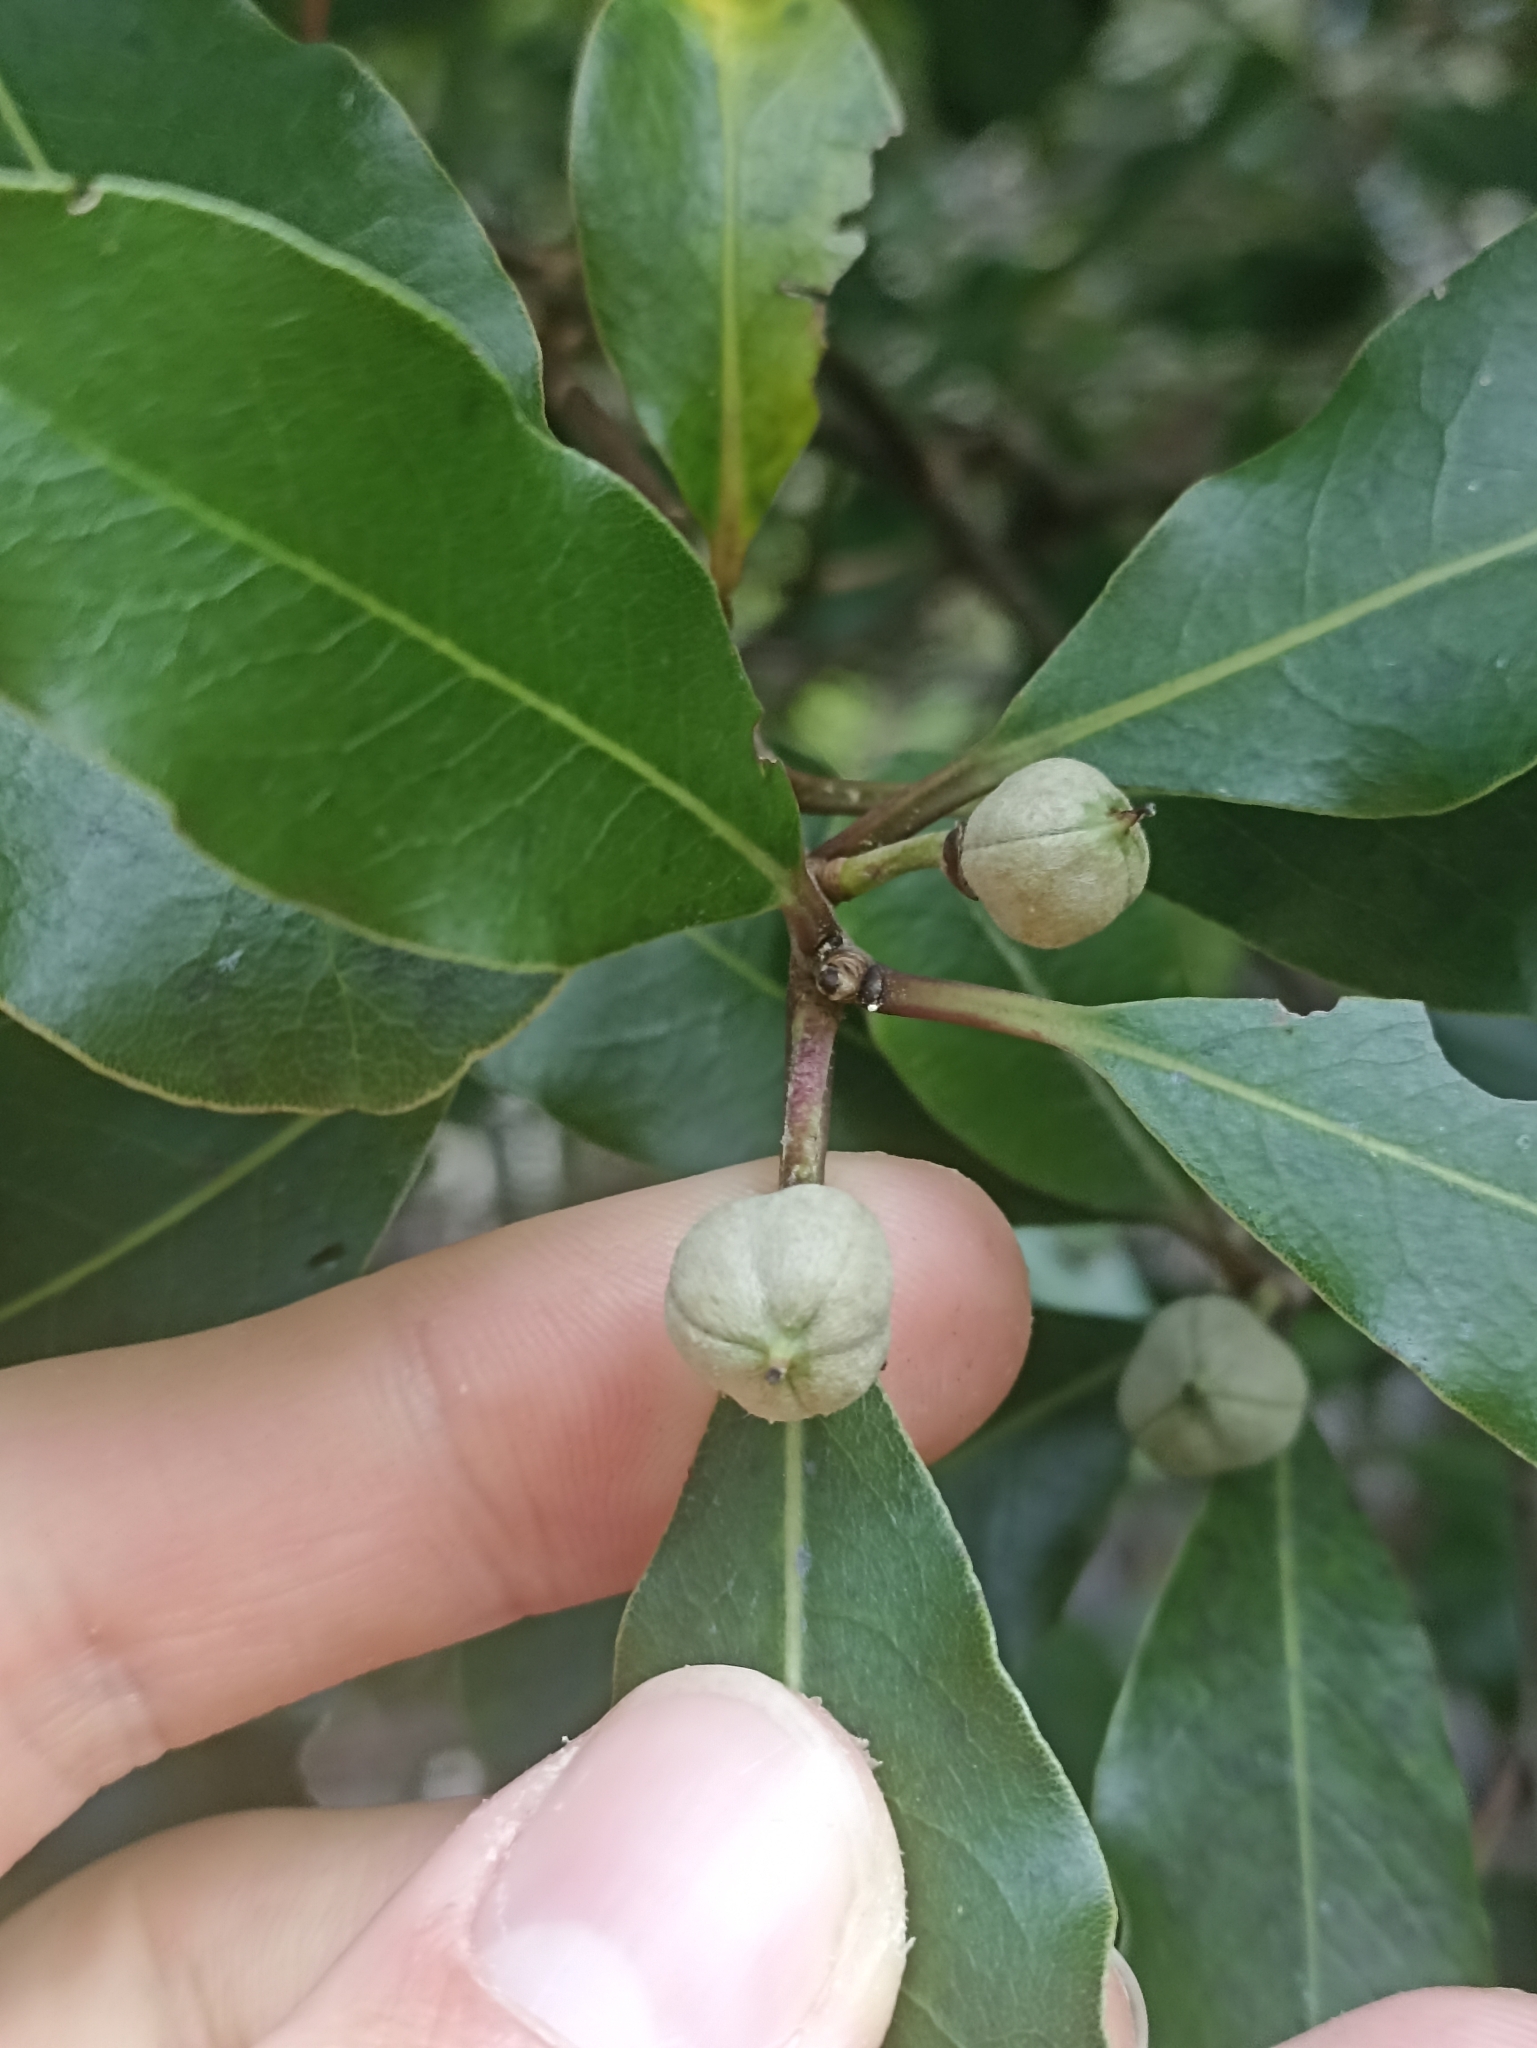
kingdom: Plantae
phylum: Tracheophyta
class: Magnoliopsida
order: Apiales
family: Pittosporaceae
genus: Pittosporum
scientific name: Pittosporum huttonianum
